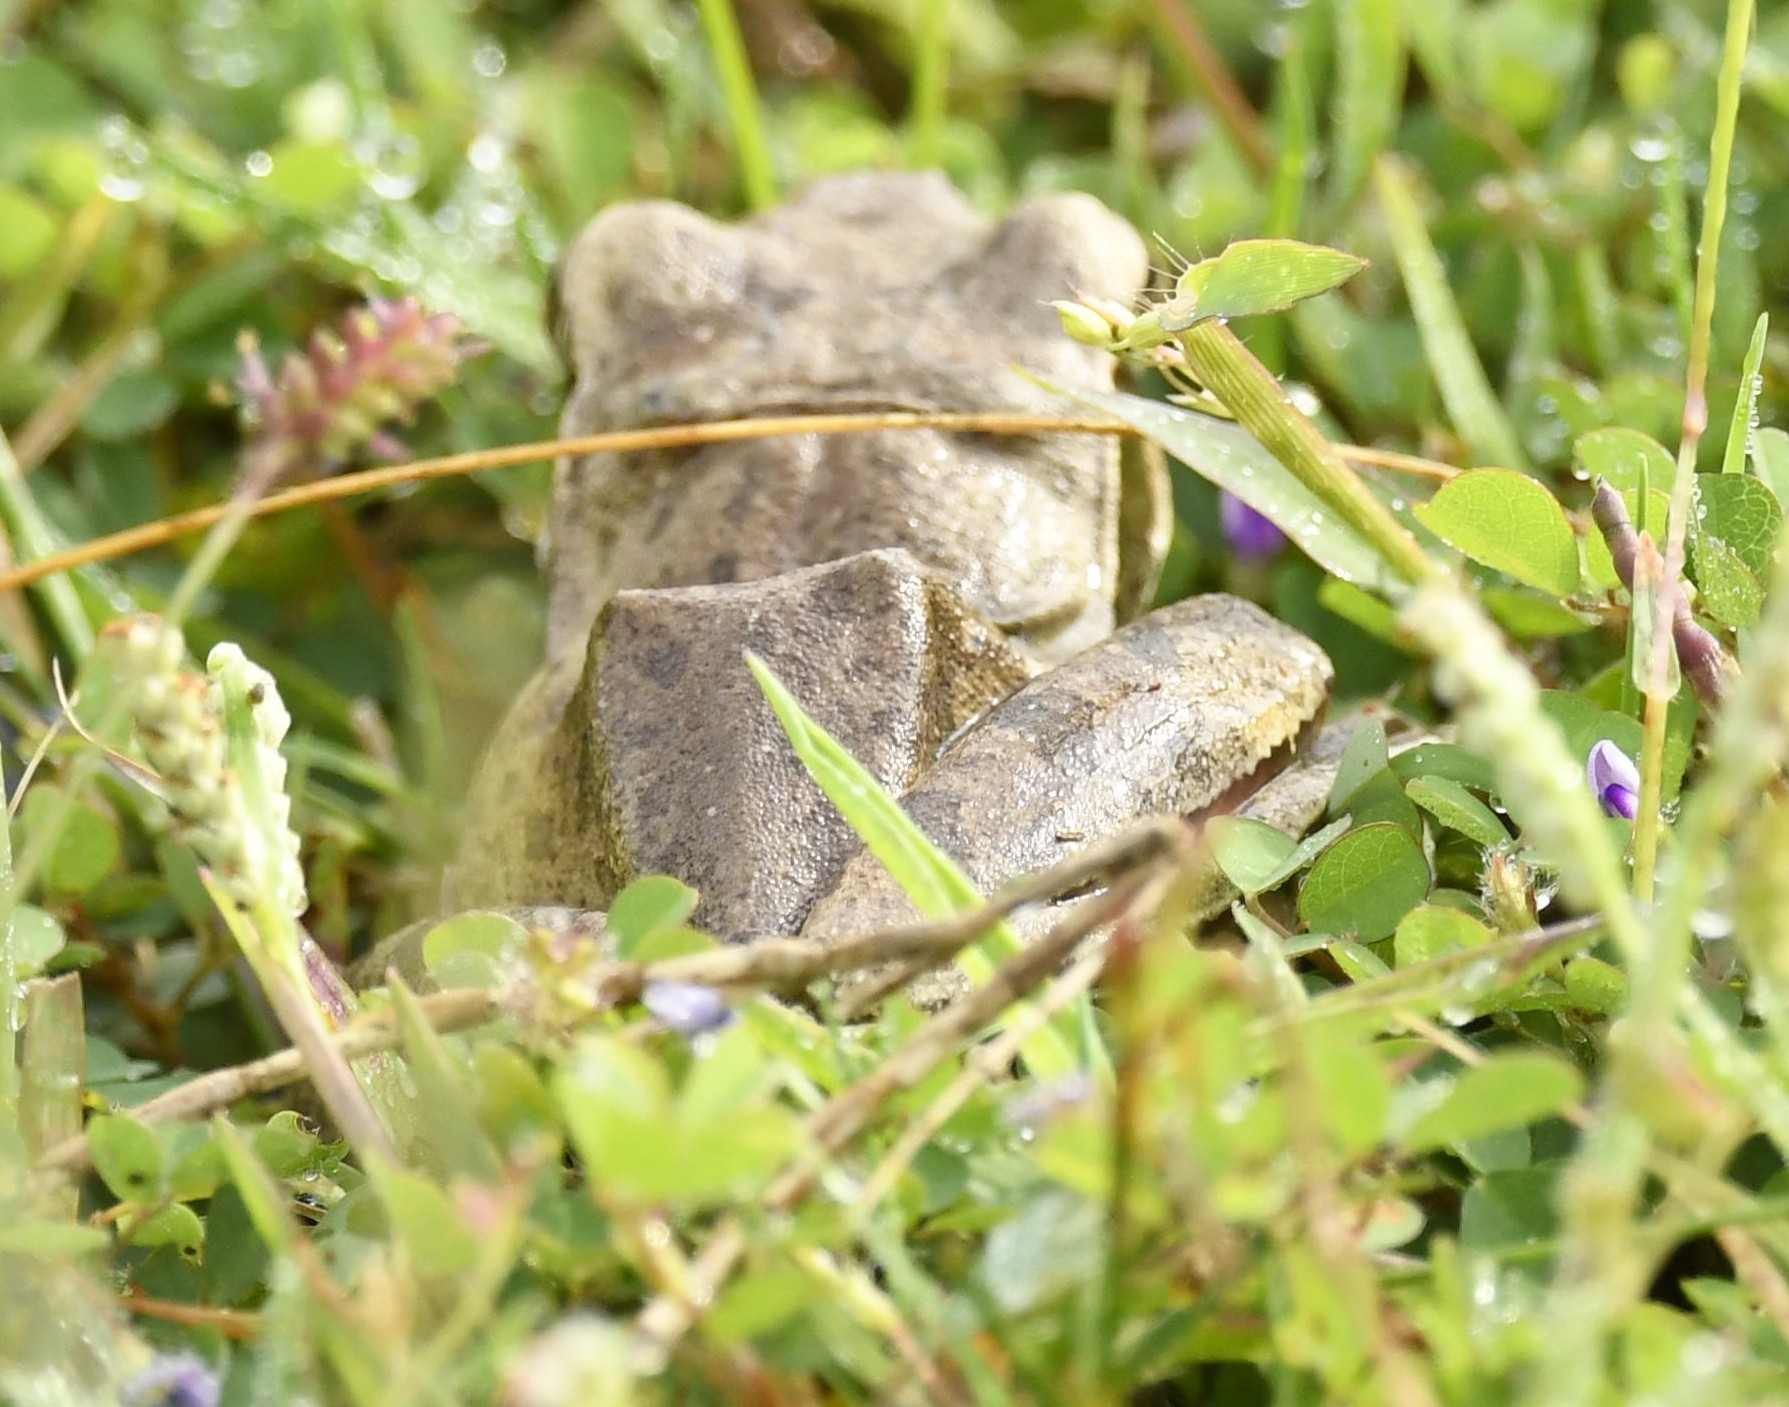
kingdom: Animalia
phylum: Chordata
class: Amphibia
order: Anura
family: Rhacophoridae
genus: Polypedates
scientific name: Polypedates maculatus
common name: Himalayan tree frog
